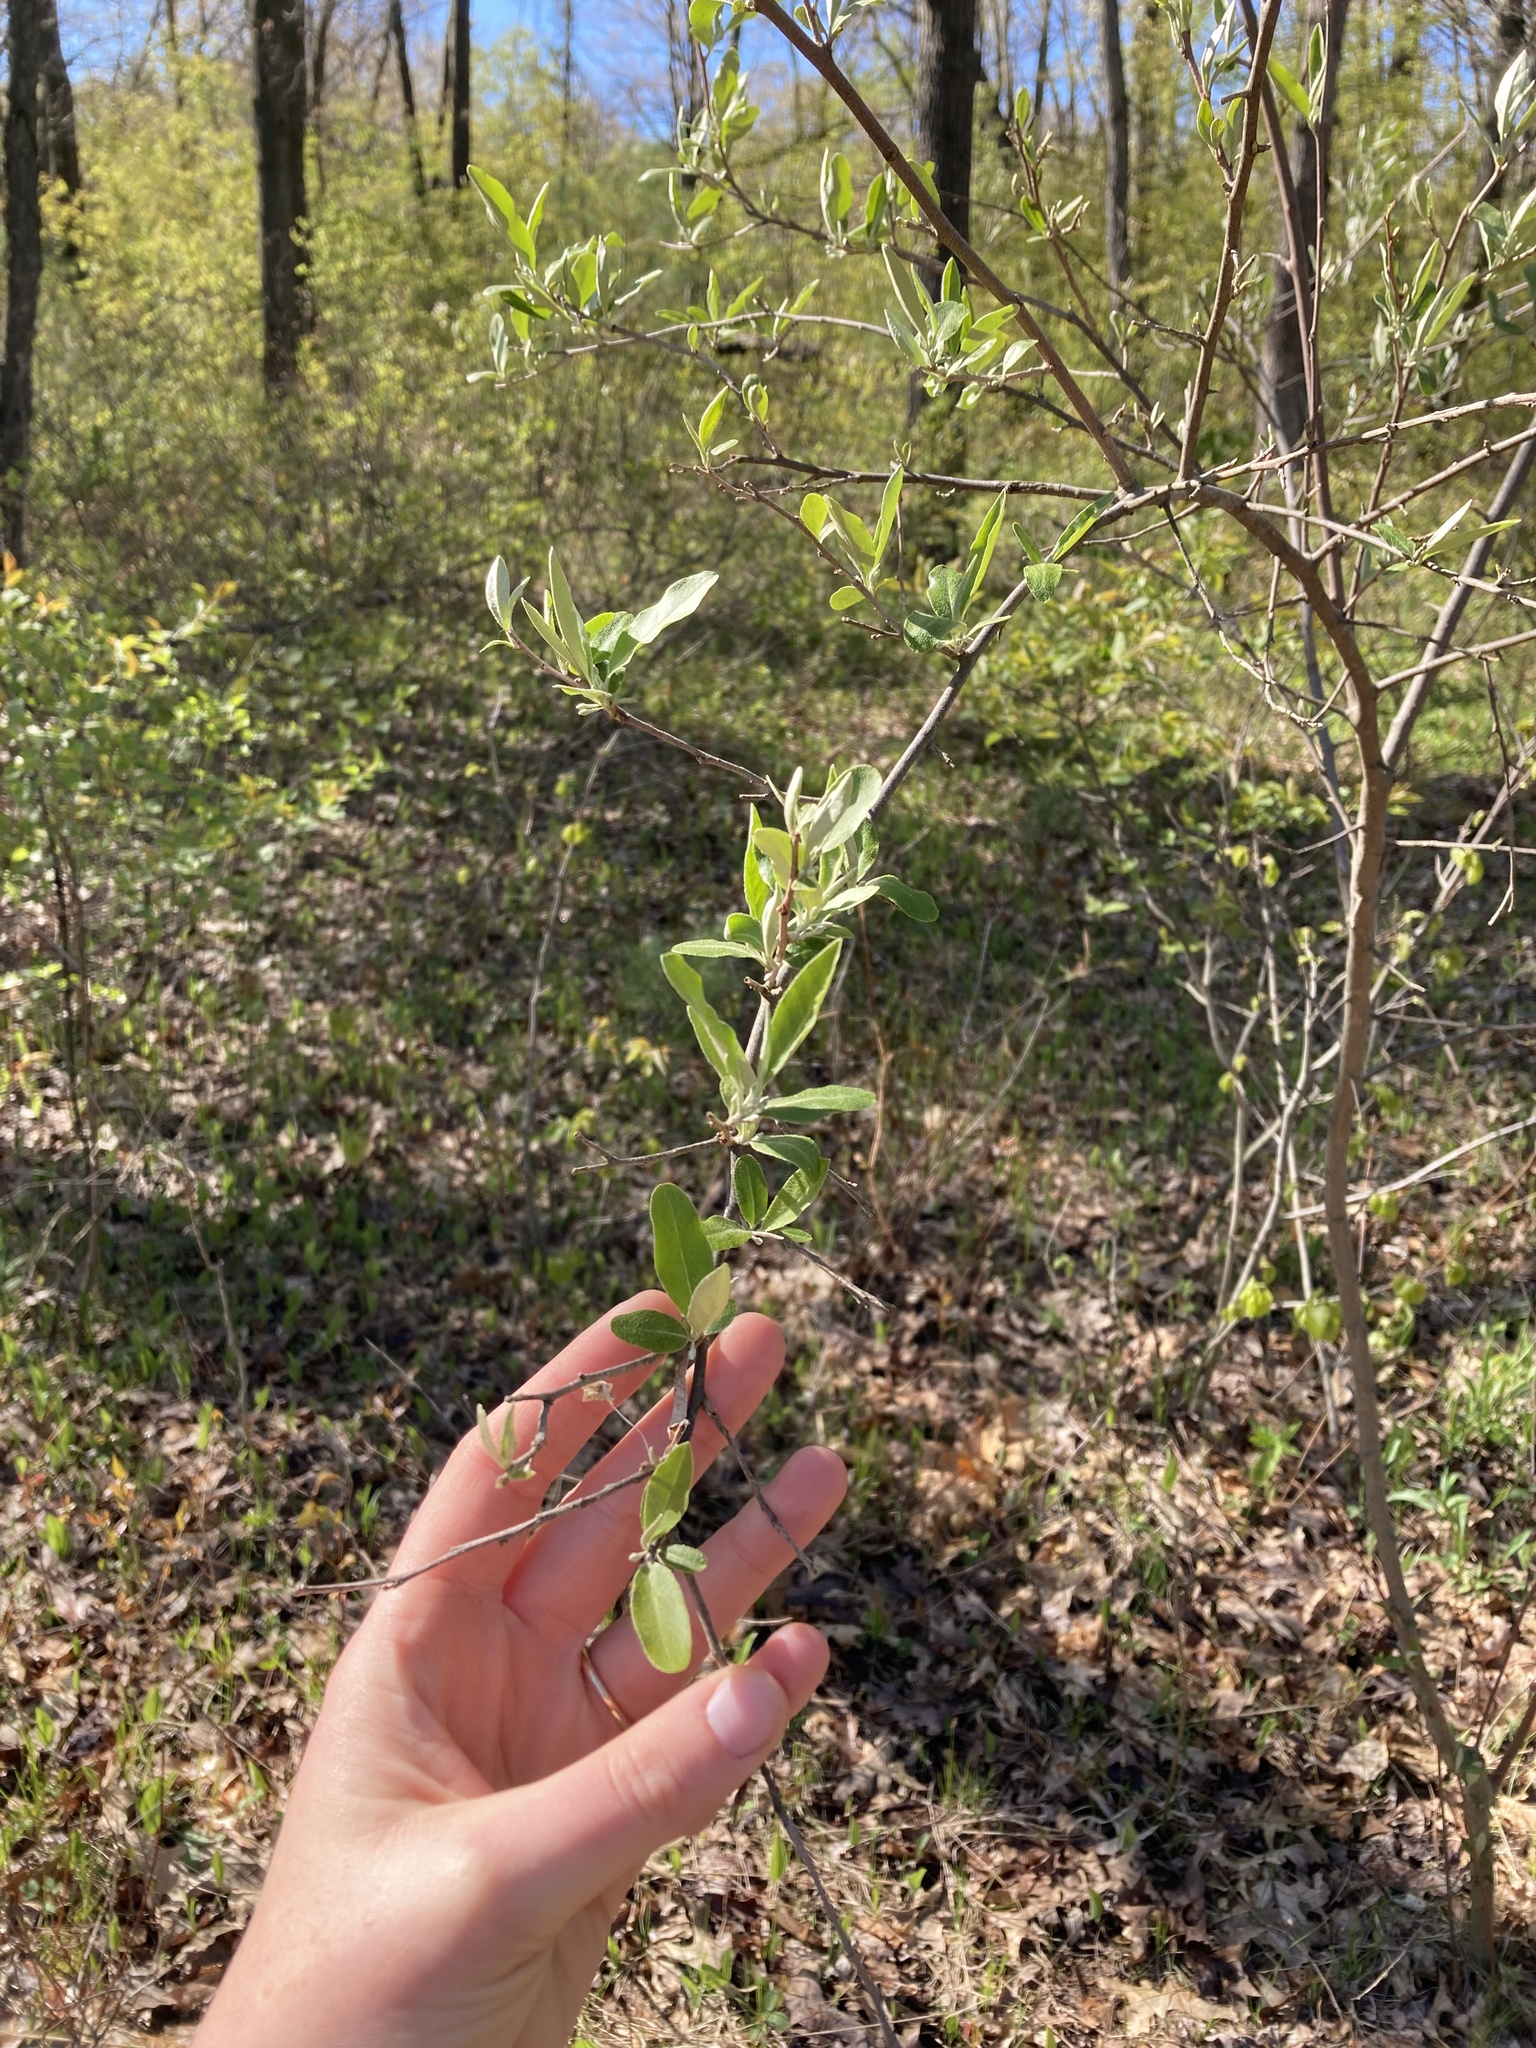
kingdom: Plantae
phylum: Tracheophyta
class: Magnoliopsida
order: Rosales
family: Elaeagnaceae
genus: Elaeagnus
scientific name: Elaeagnus umbellata
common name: Autumn olive
